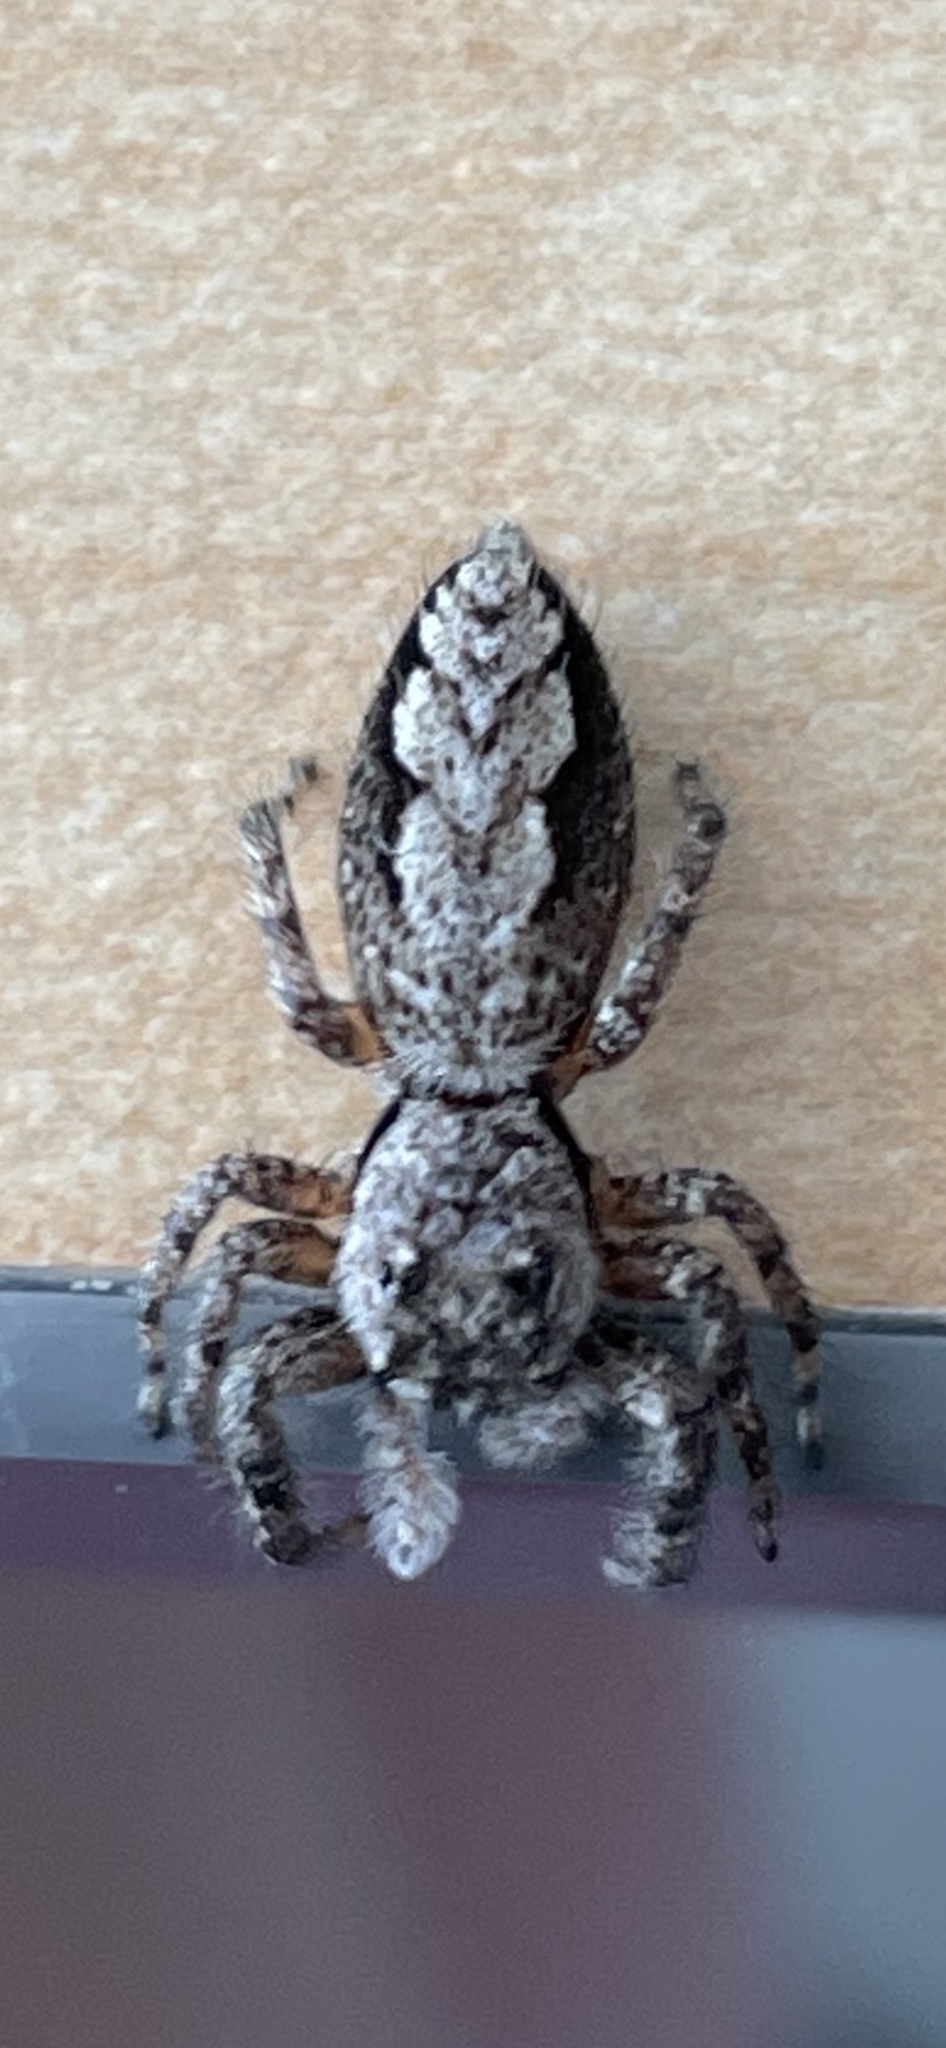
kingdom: Animalia
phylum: Arthropoda
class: Arachnida
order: Araneae
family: Salticidae
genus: Platycryptus
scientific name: Platycryptus undatus
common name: Tan jumping spider
